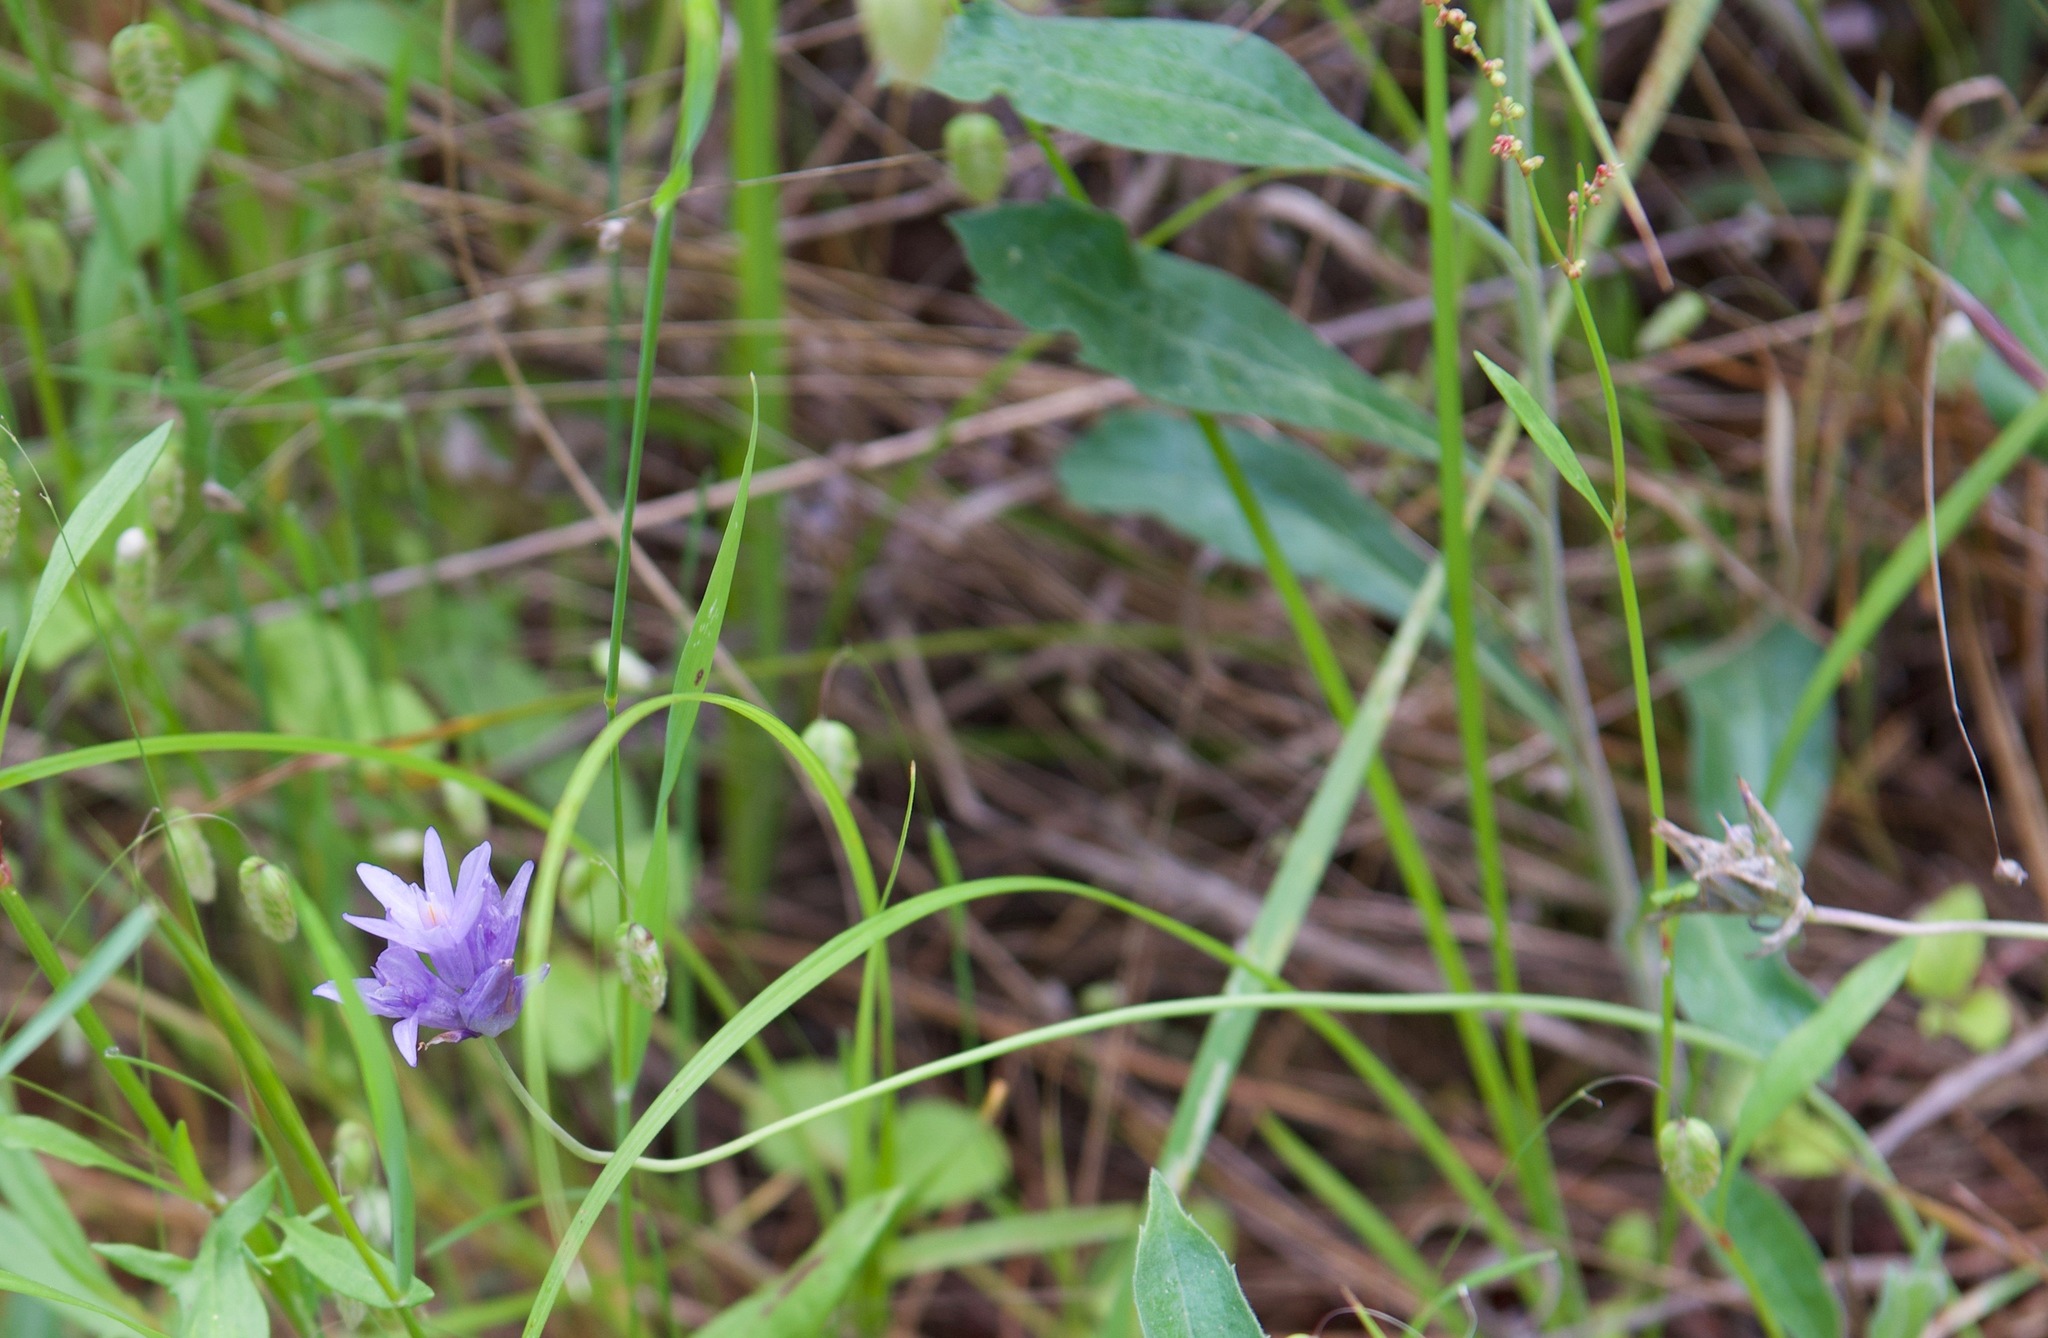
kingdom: Plantae
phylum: Tracheophyta
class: Liliopsida
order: Asparagales
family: Asparagaceae
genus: Dipterostemon
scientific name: Dipterostemon capitatus
